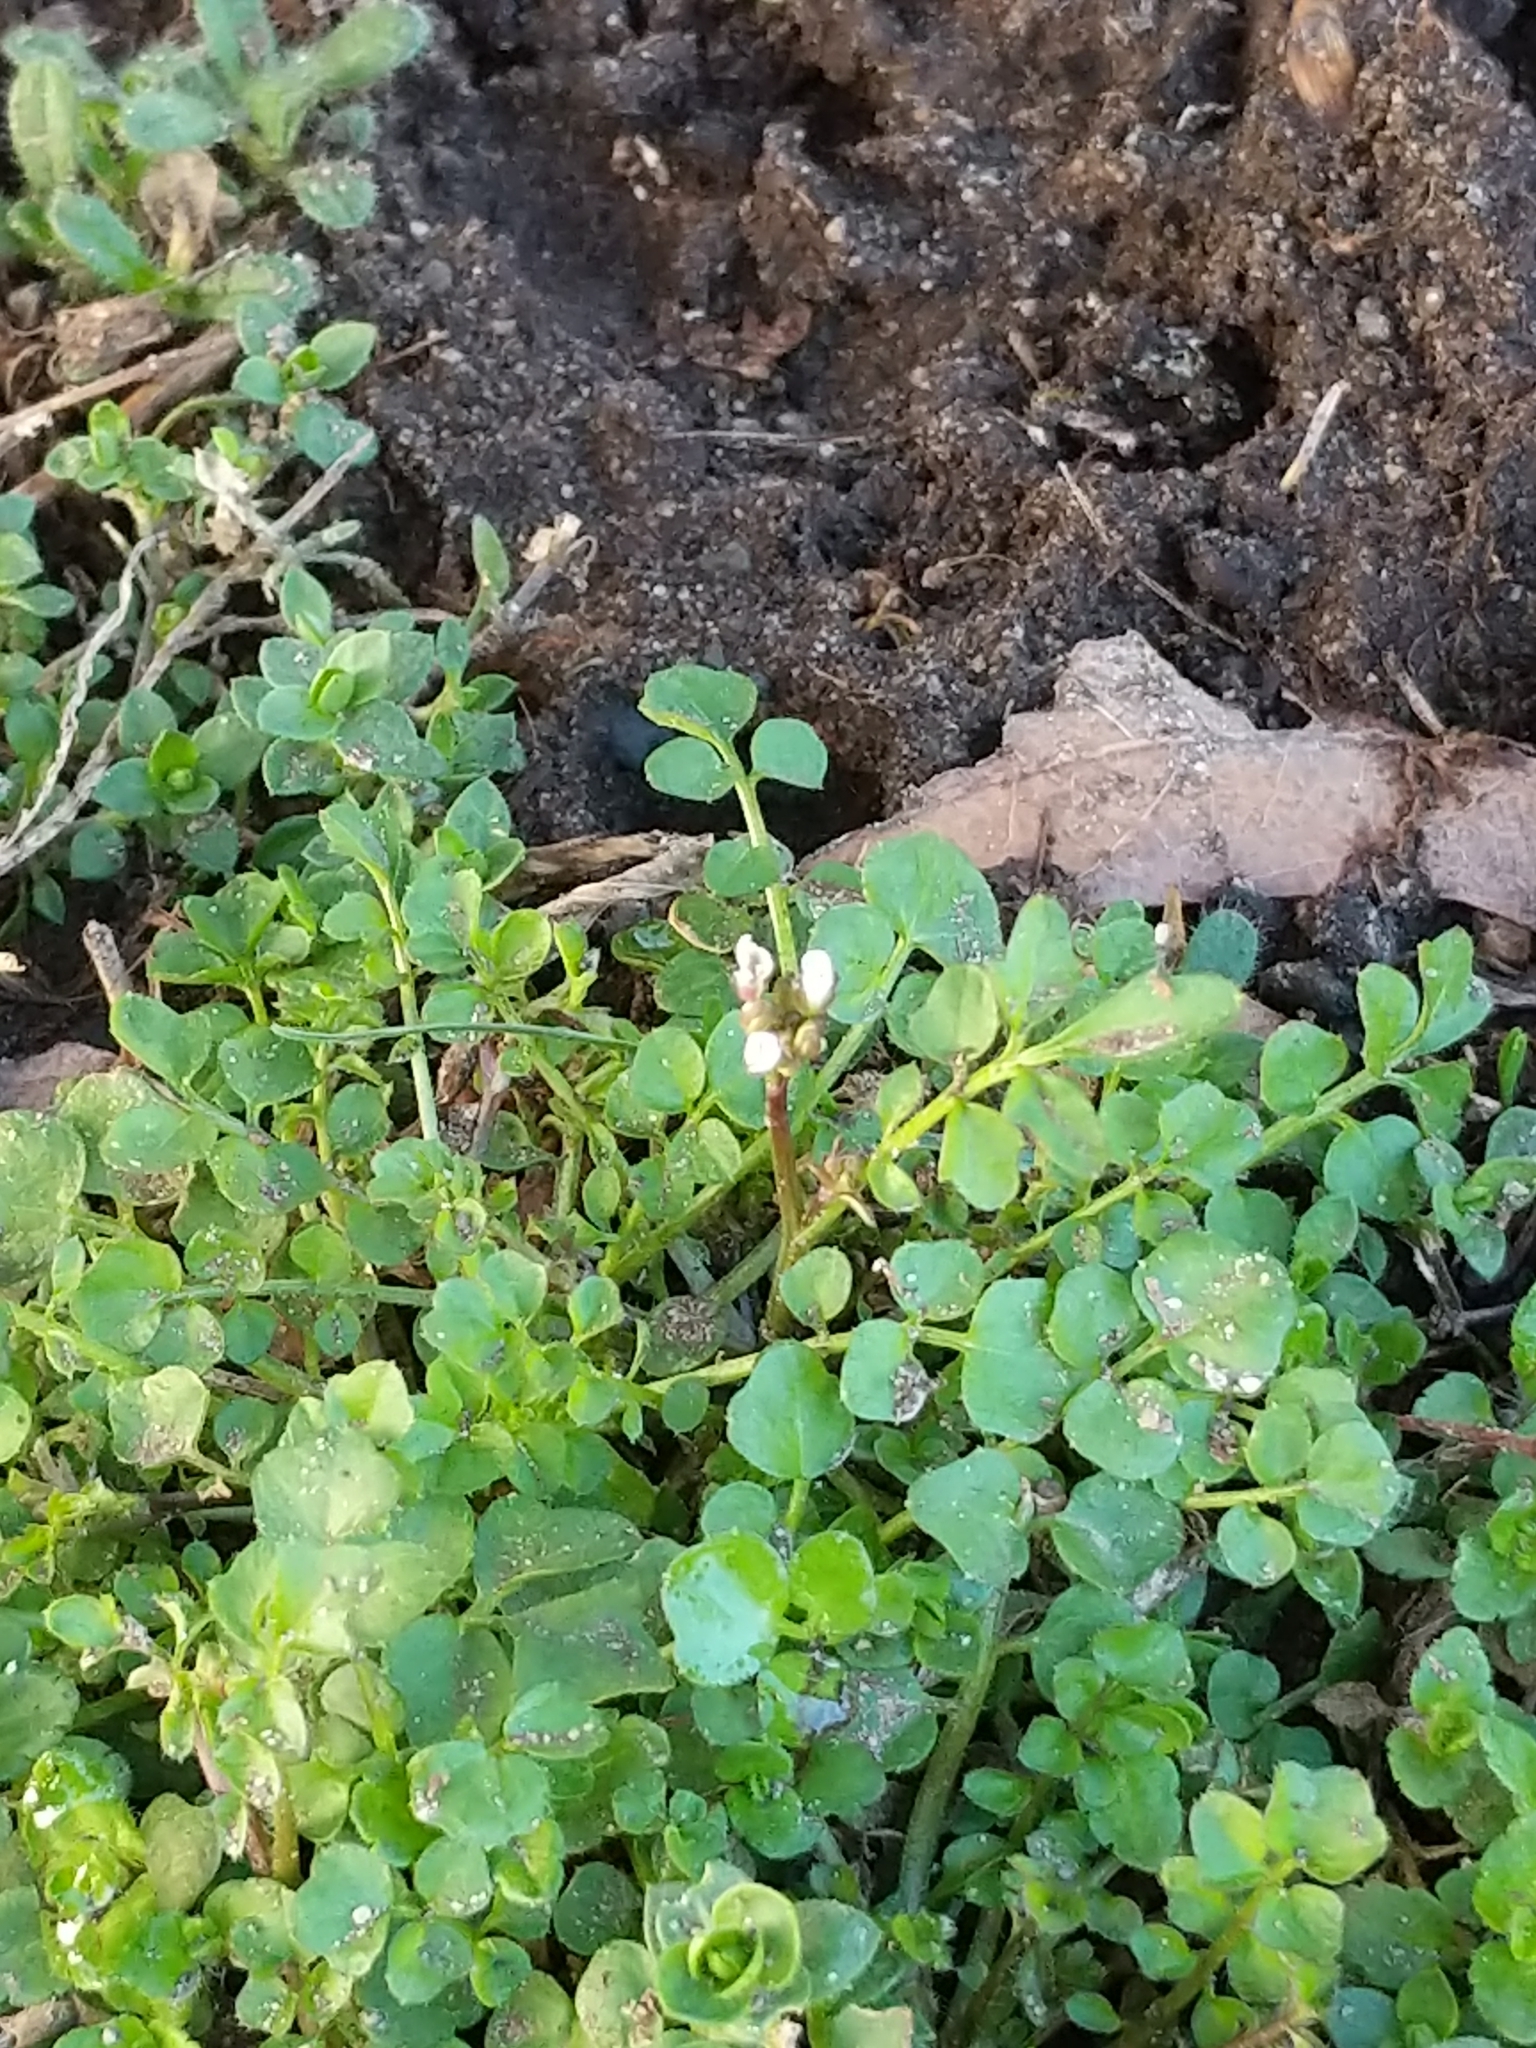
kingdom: Plantae
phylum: Tracheophyta
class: Magnoliopsida
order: Brassicales
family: Brassicaceae
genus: Cardamine
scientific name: Cardamine hirsuta
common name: Hairy bittercress
